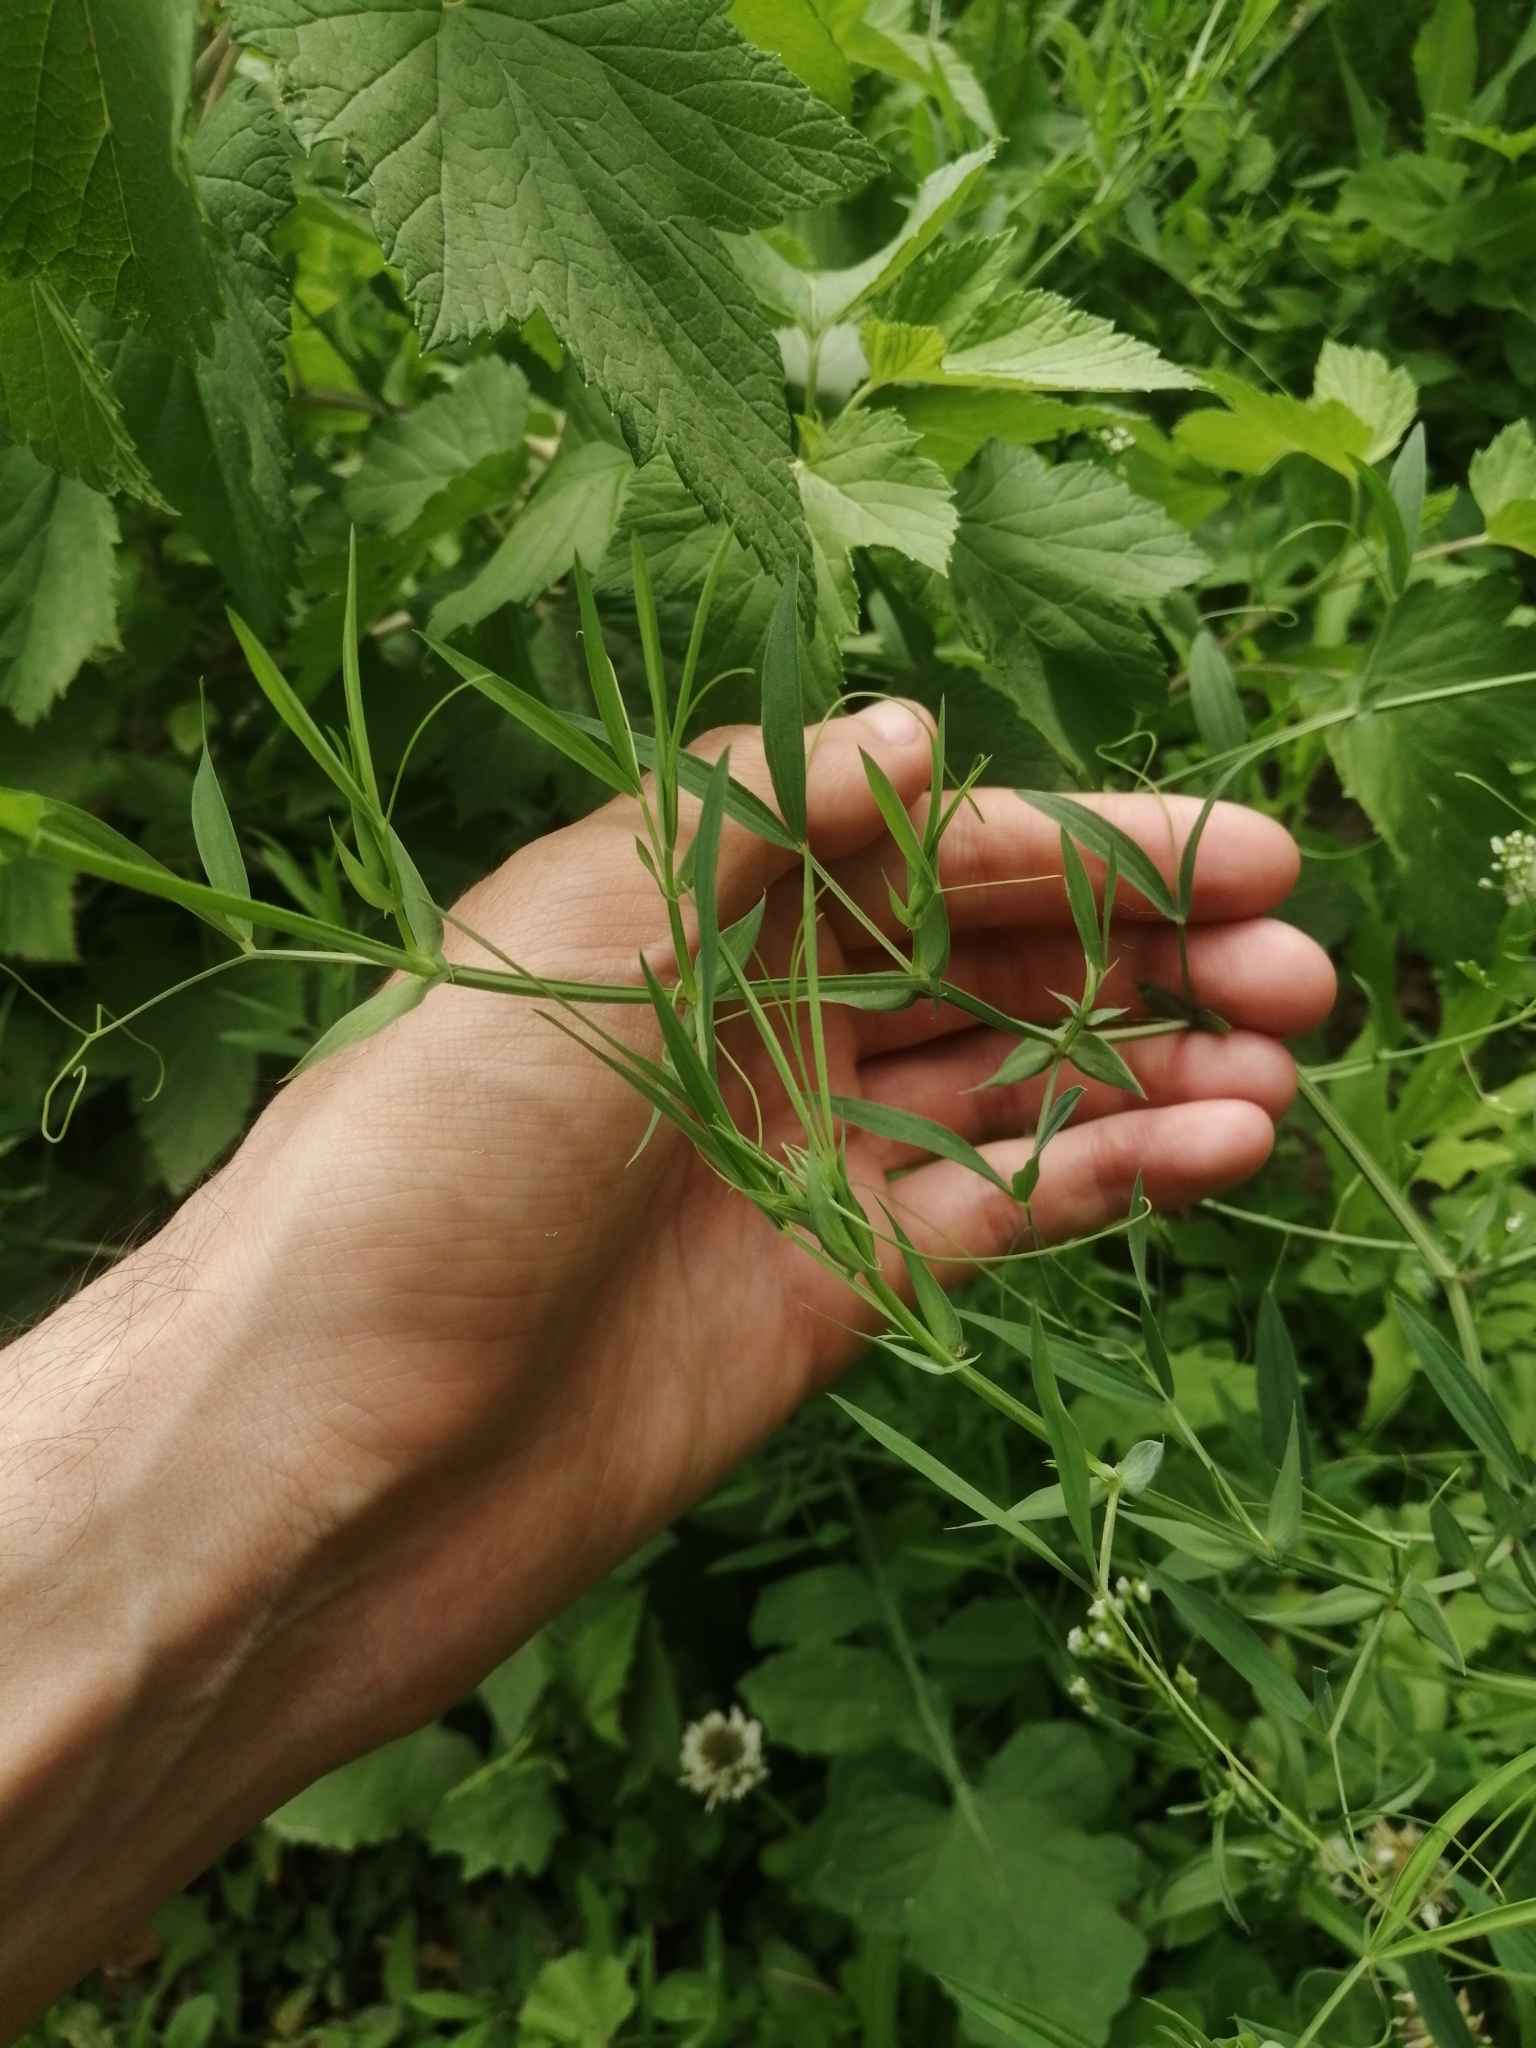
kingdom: Plantae
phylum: Tracheophyta
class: Magnoliopsida
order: Fabales
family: Fabaceae
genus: Lathyrus
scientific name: Lathyrus pratensis
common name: Meadow vetchling
